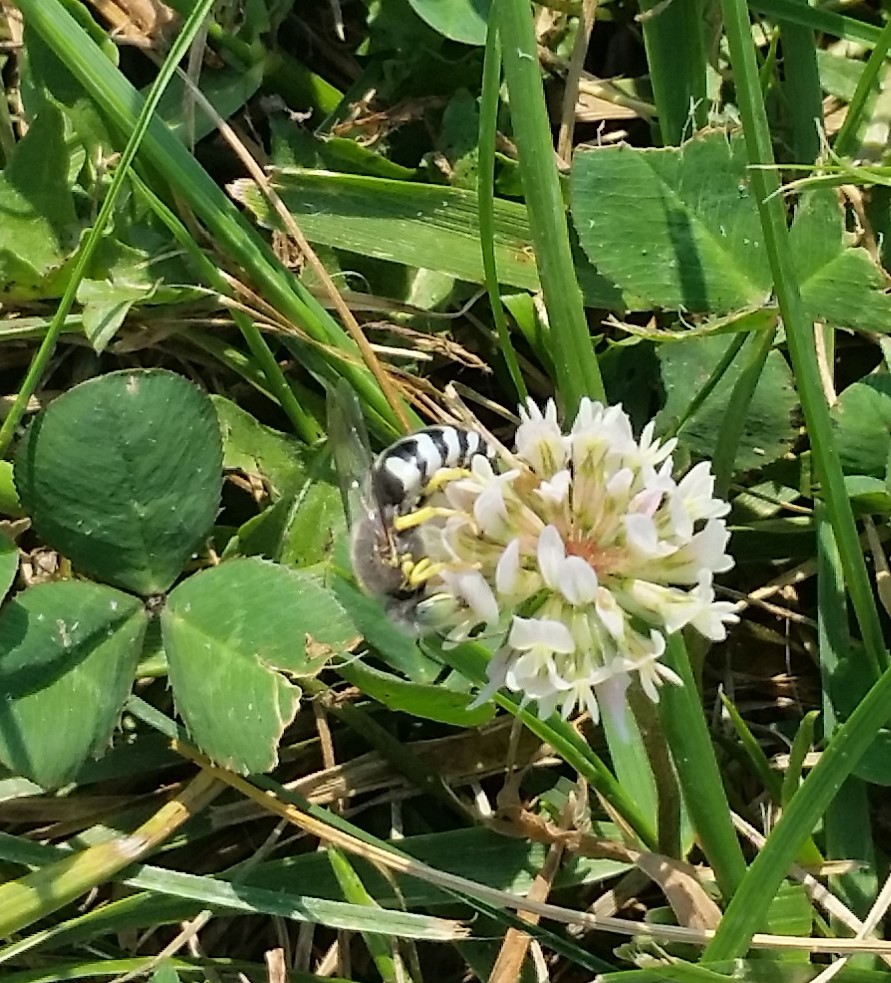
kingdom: Animalia
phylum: Arthropoda
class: Insecta
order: Hymenoptera
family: Crabronidae
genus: Microbembex
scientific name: Microbembex monodonta
